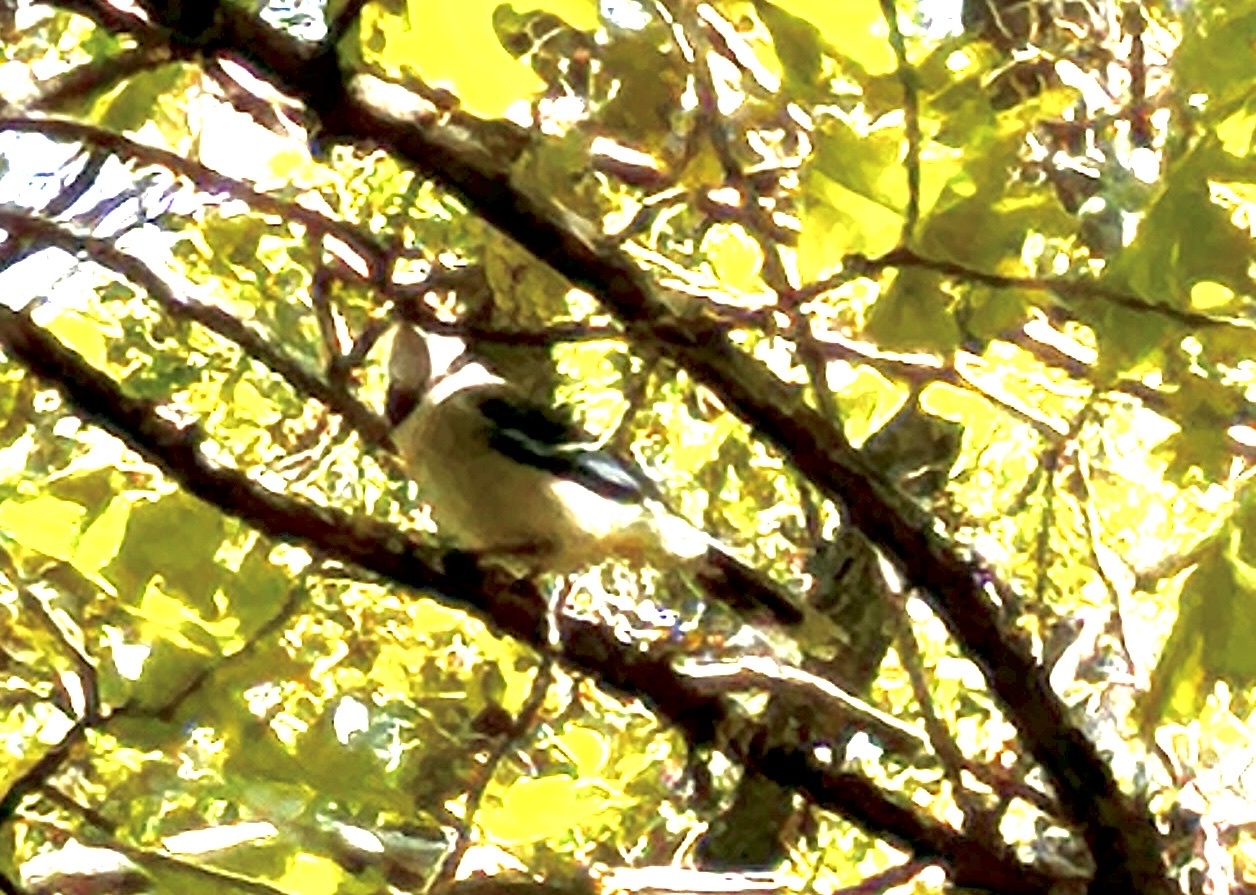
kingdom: Animalia
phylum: Chordata
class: Aves
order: Passeriformes
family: Corvidae
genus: Cyanocitta
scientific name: Cyanocitta cristata
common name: Blue jay
